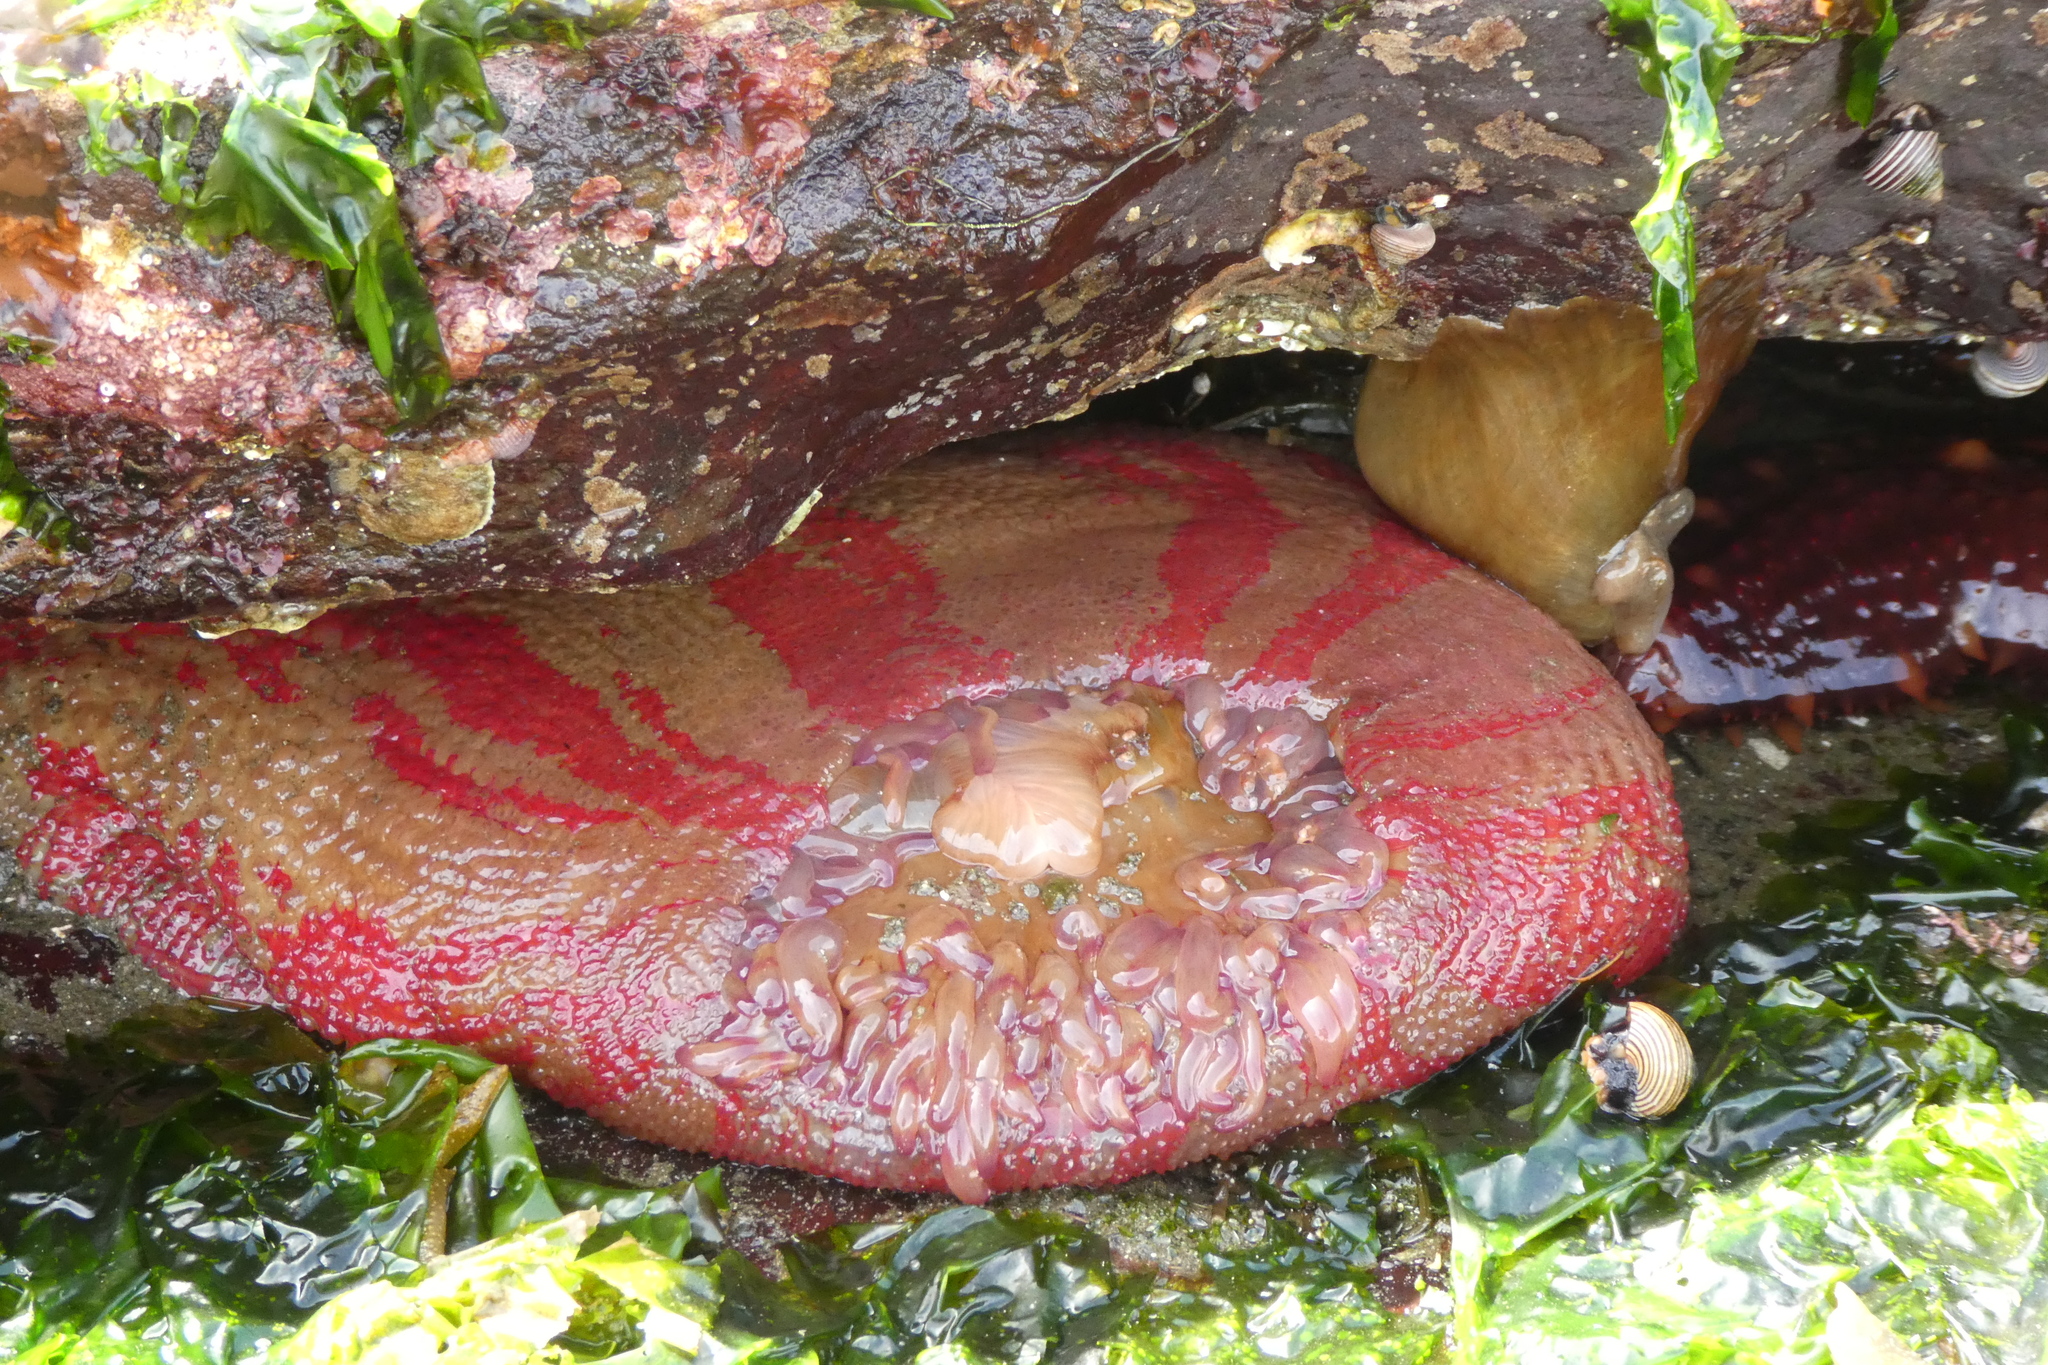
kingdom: Animalia
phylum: Cnidaria
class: Anthozoa
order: Actiniaria
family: Actiniidae
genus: Urticina
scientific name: Urticina grebelnyi
